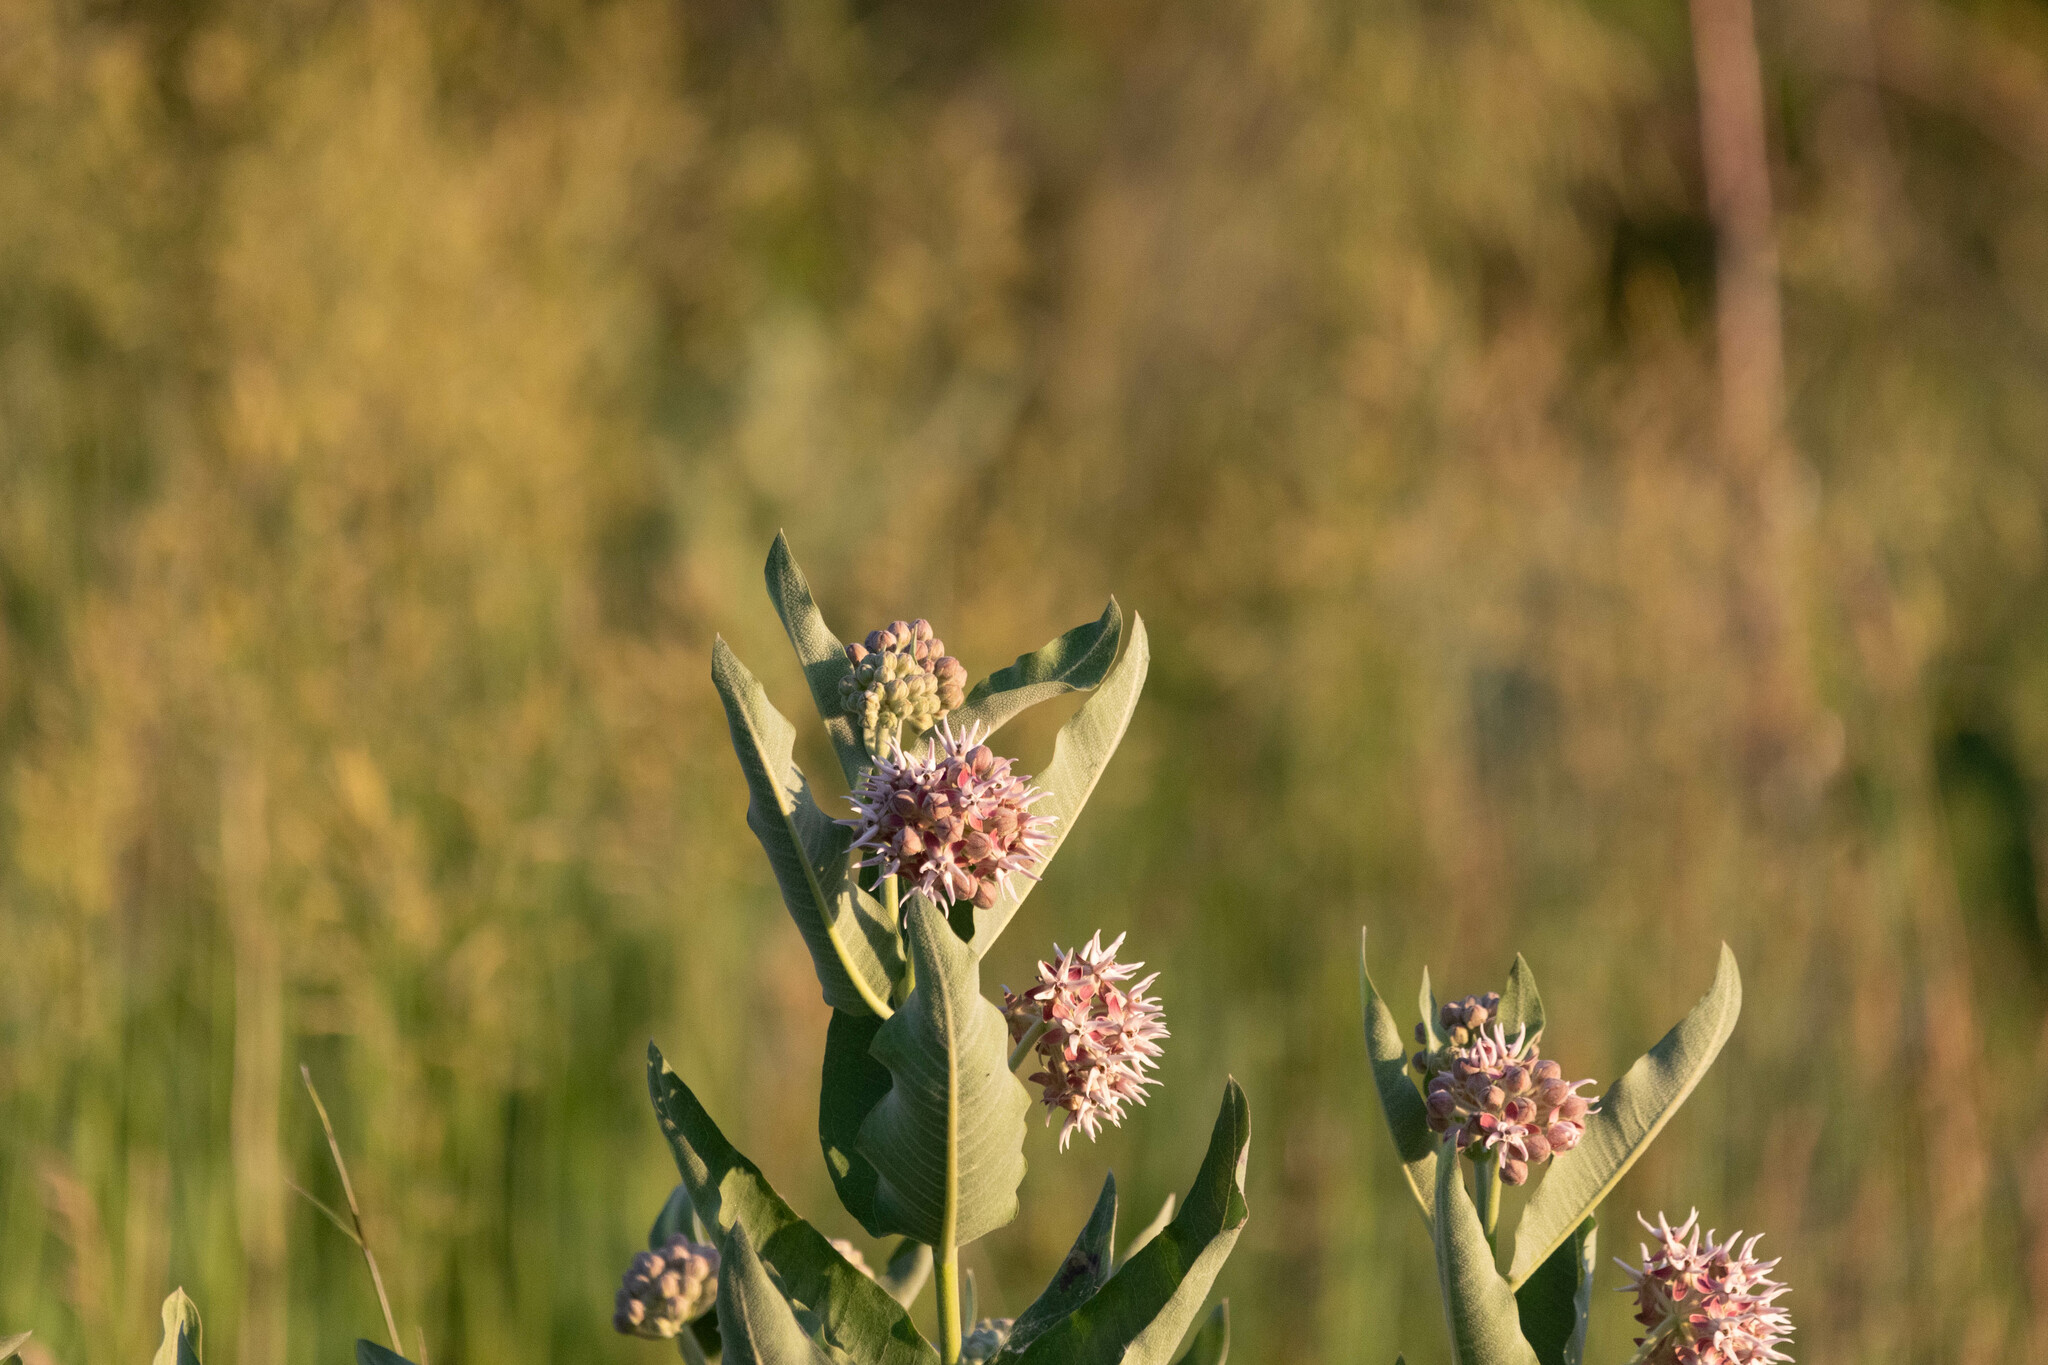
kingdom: Plantae
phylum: Tracheophyta
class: Magnoliopsida
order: Gentianales
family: Apocynaceae
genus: Asclepias
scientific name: Asclepias speciosa
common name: Showy milkweed
